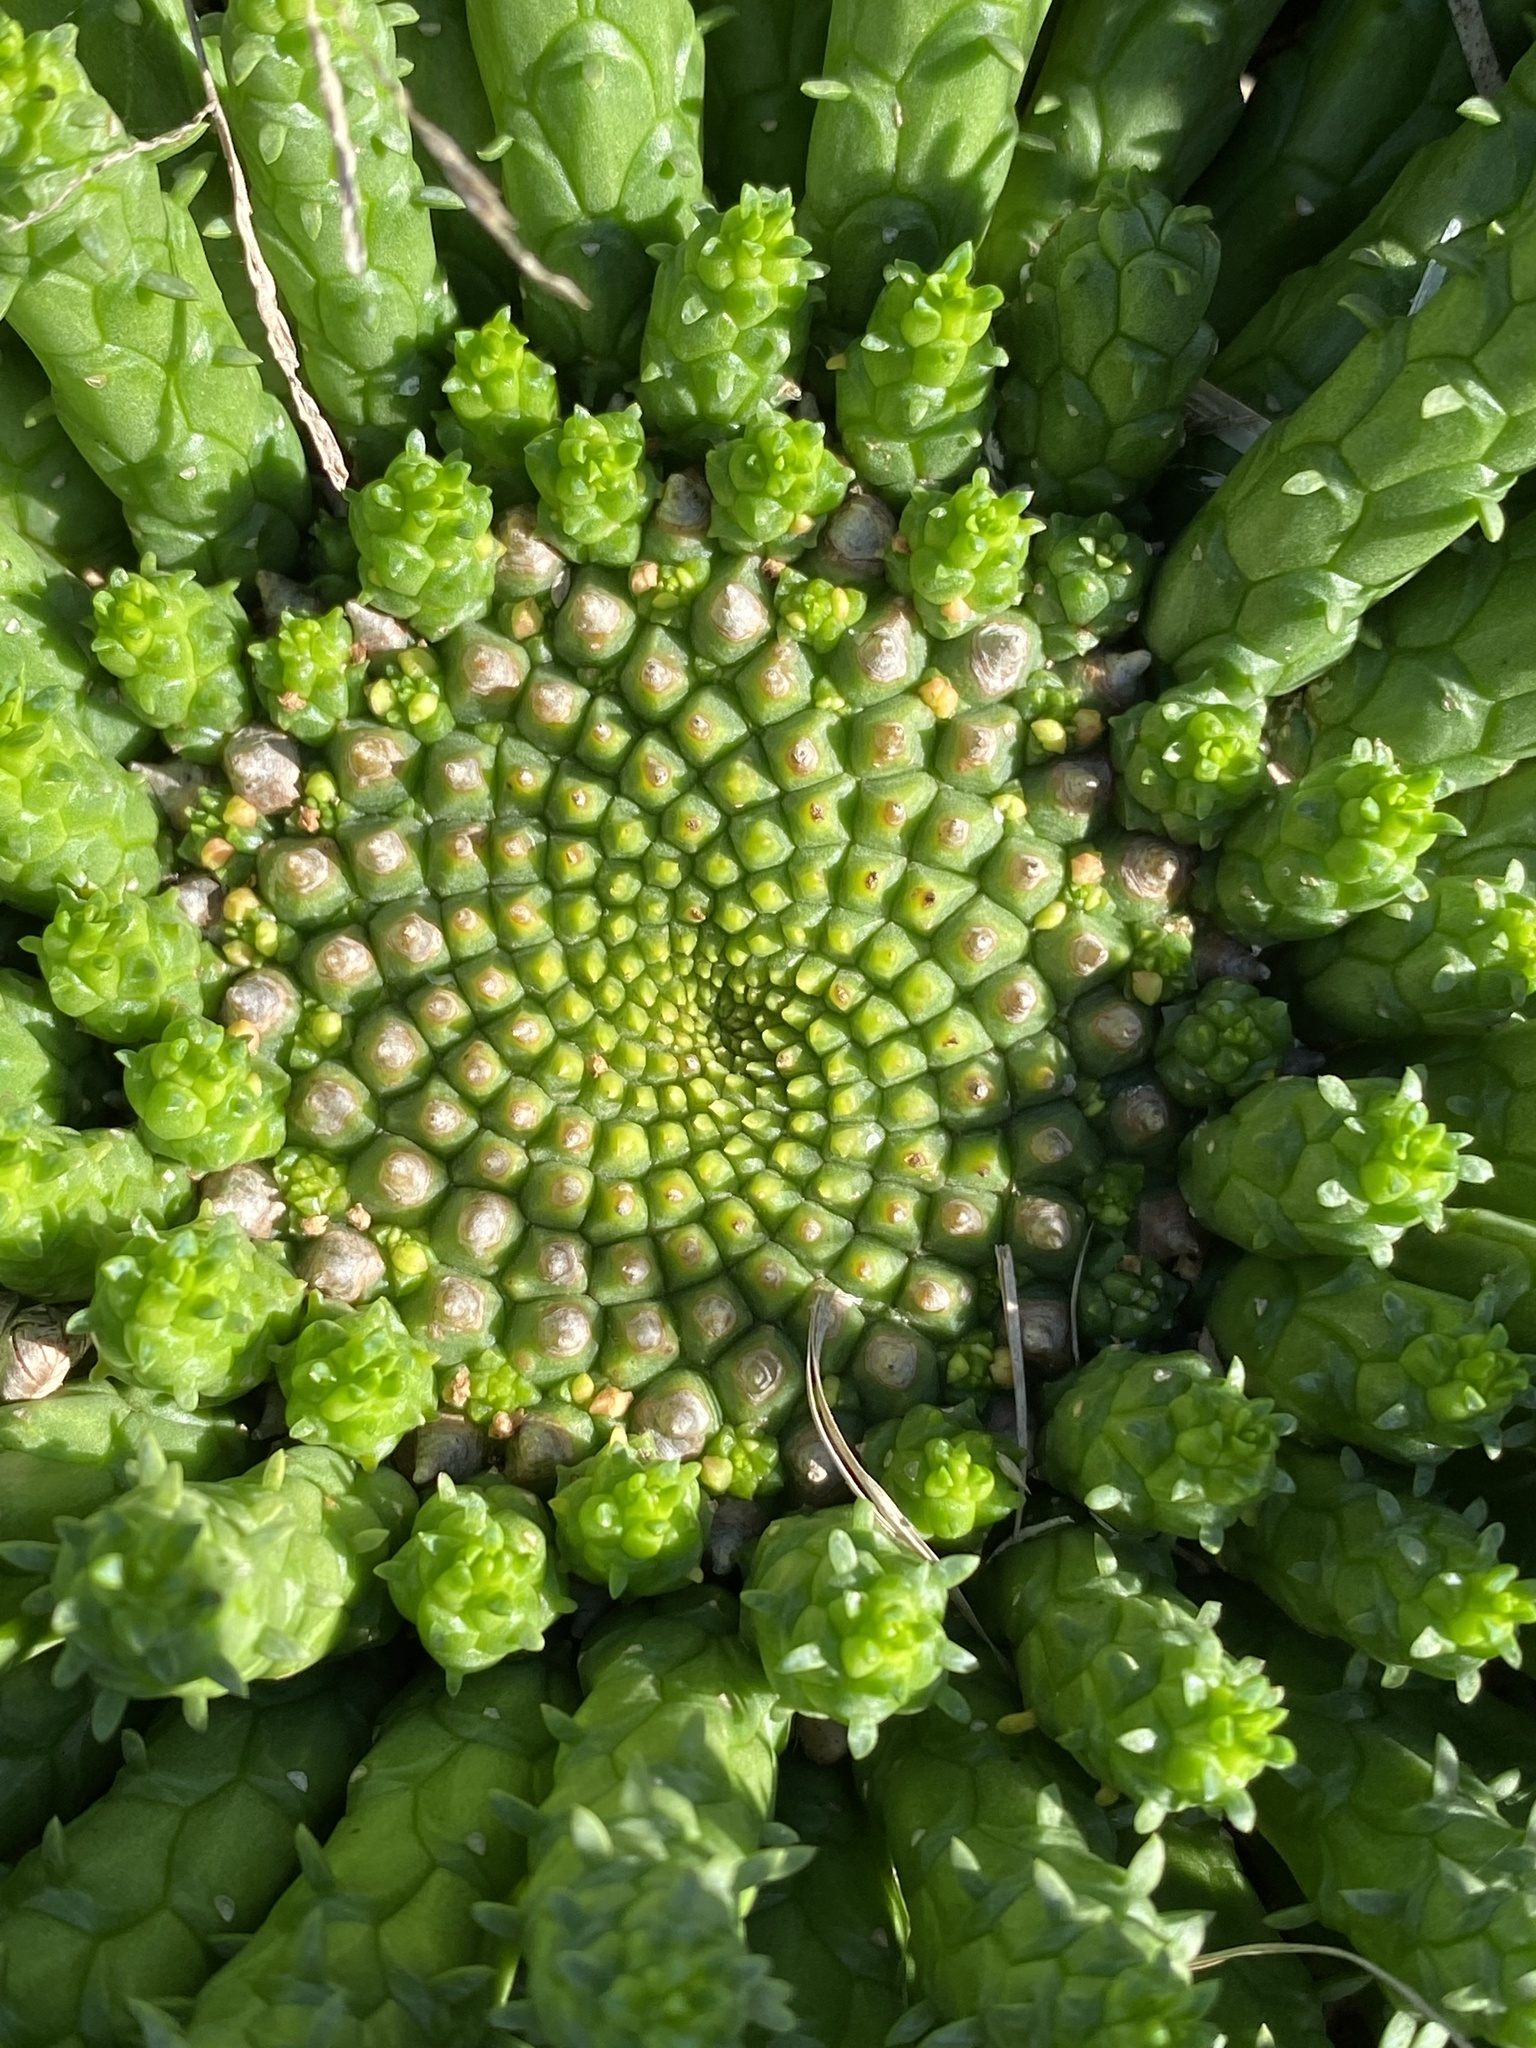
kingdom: Plantae
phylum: Tracheophyta
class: Magnoliopsida
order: Malpighiales
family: Euphorbiaceae
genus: Euphorbia
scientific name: Euphorbia flanaganii
